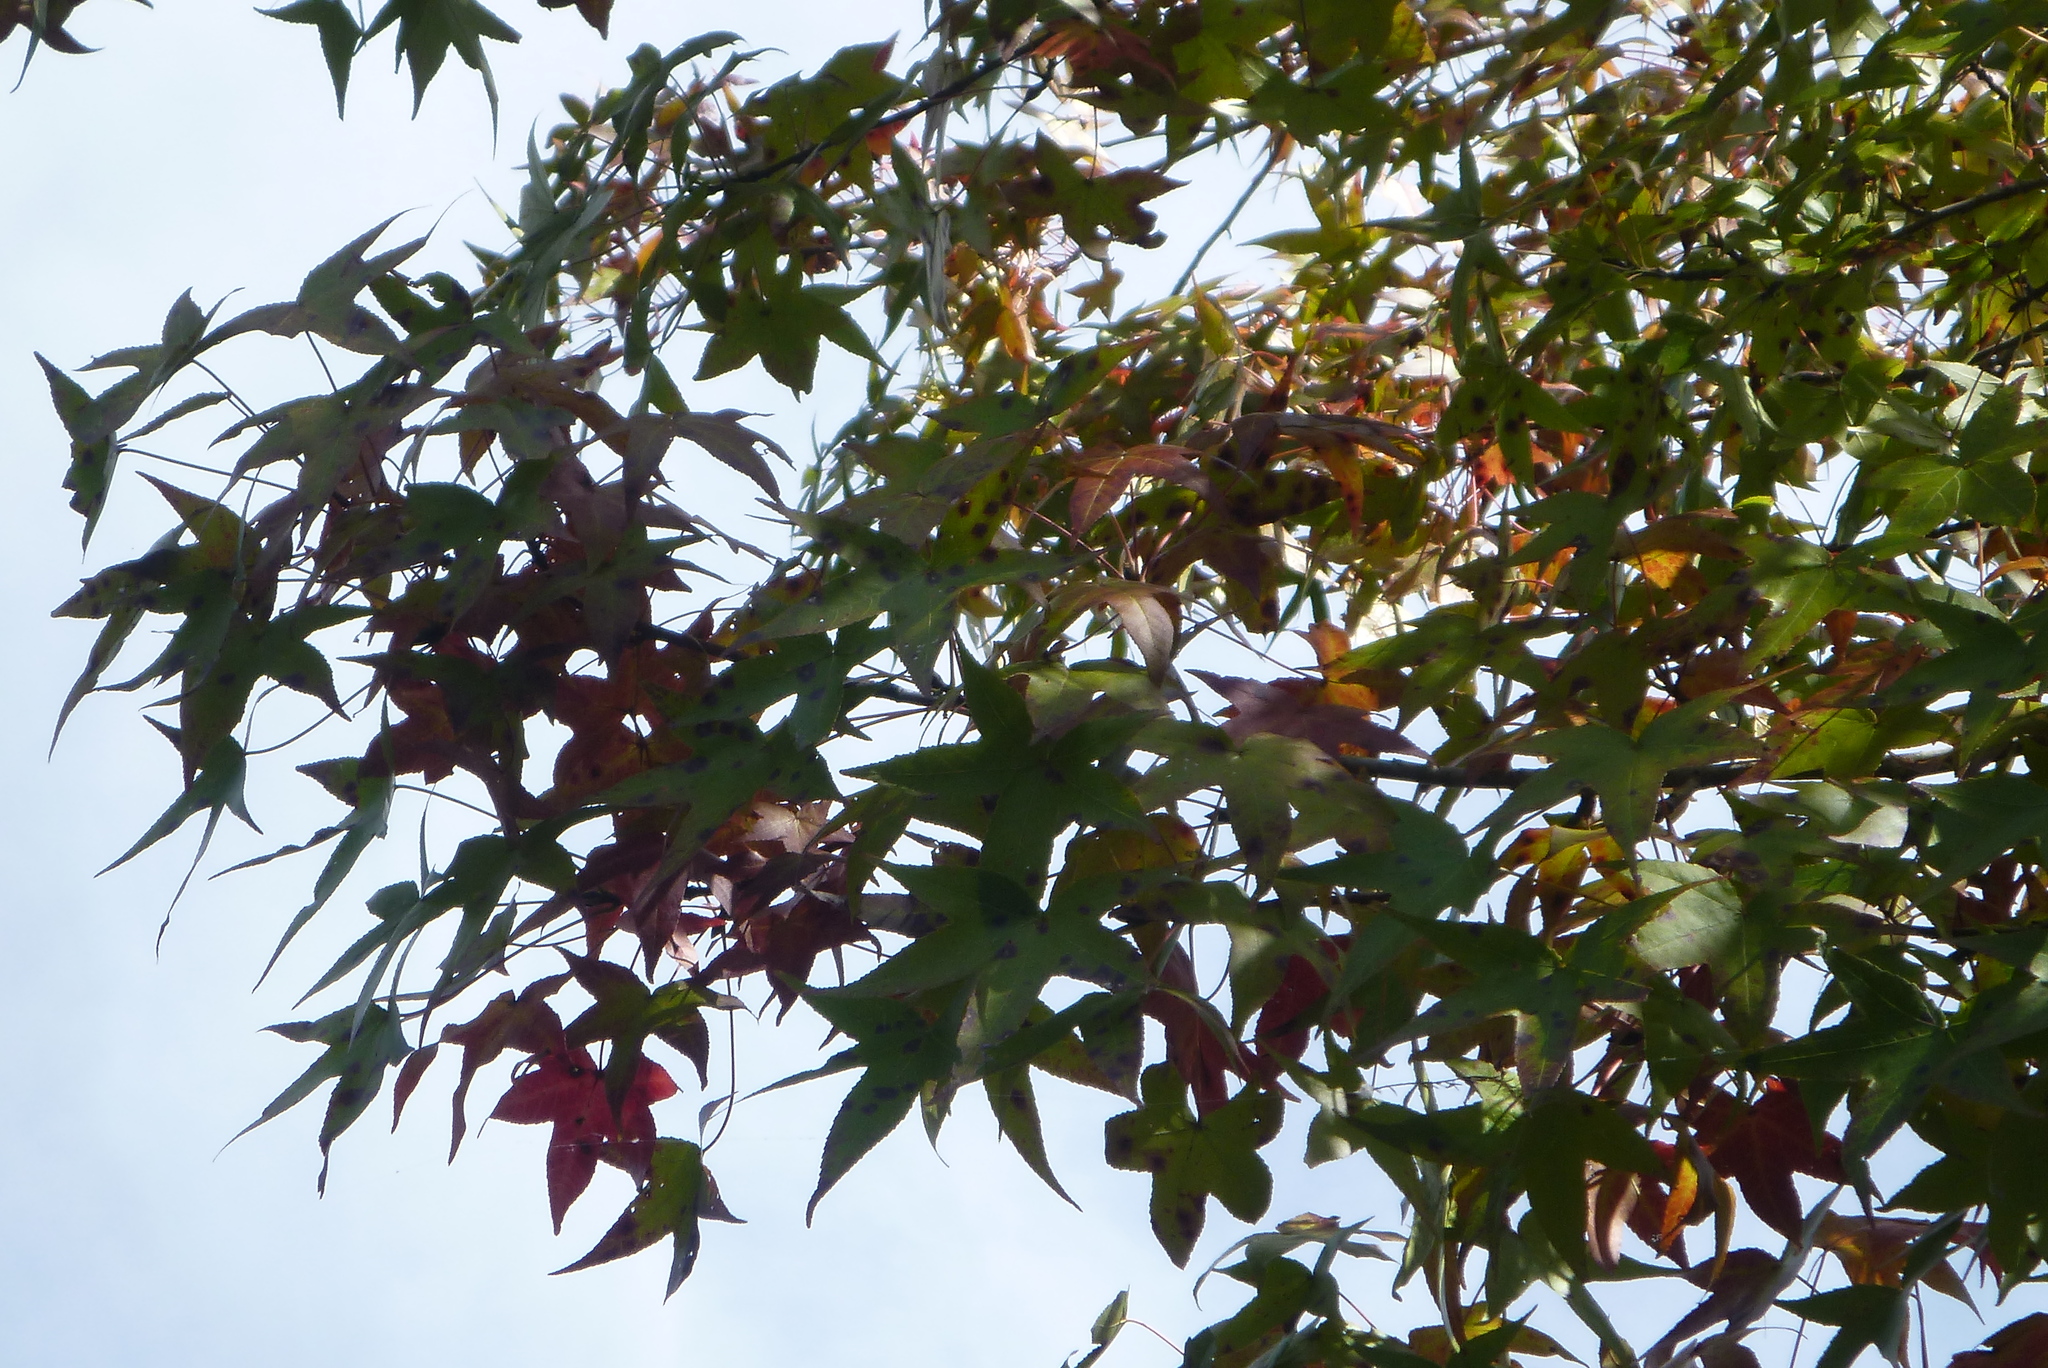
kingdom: Plantae
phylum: Tracheophyta
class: Magnoliopsida
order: Saxifragales
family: Altingiaceae
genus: Liquidambar
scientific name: Liquidambar styraciflua
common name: Sweet gum
